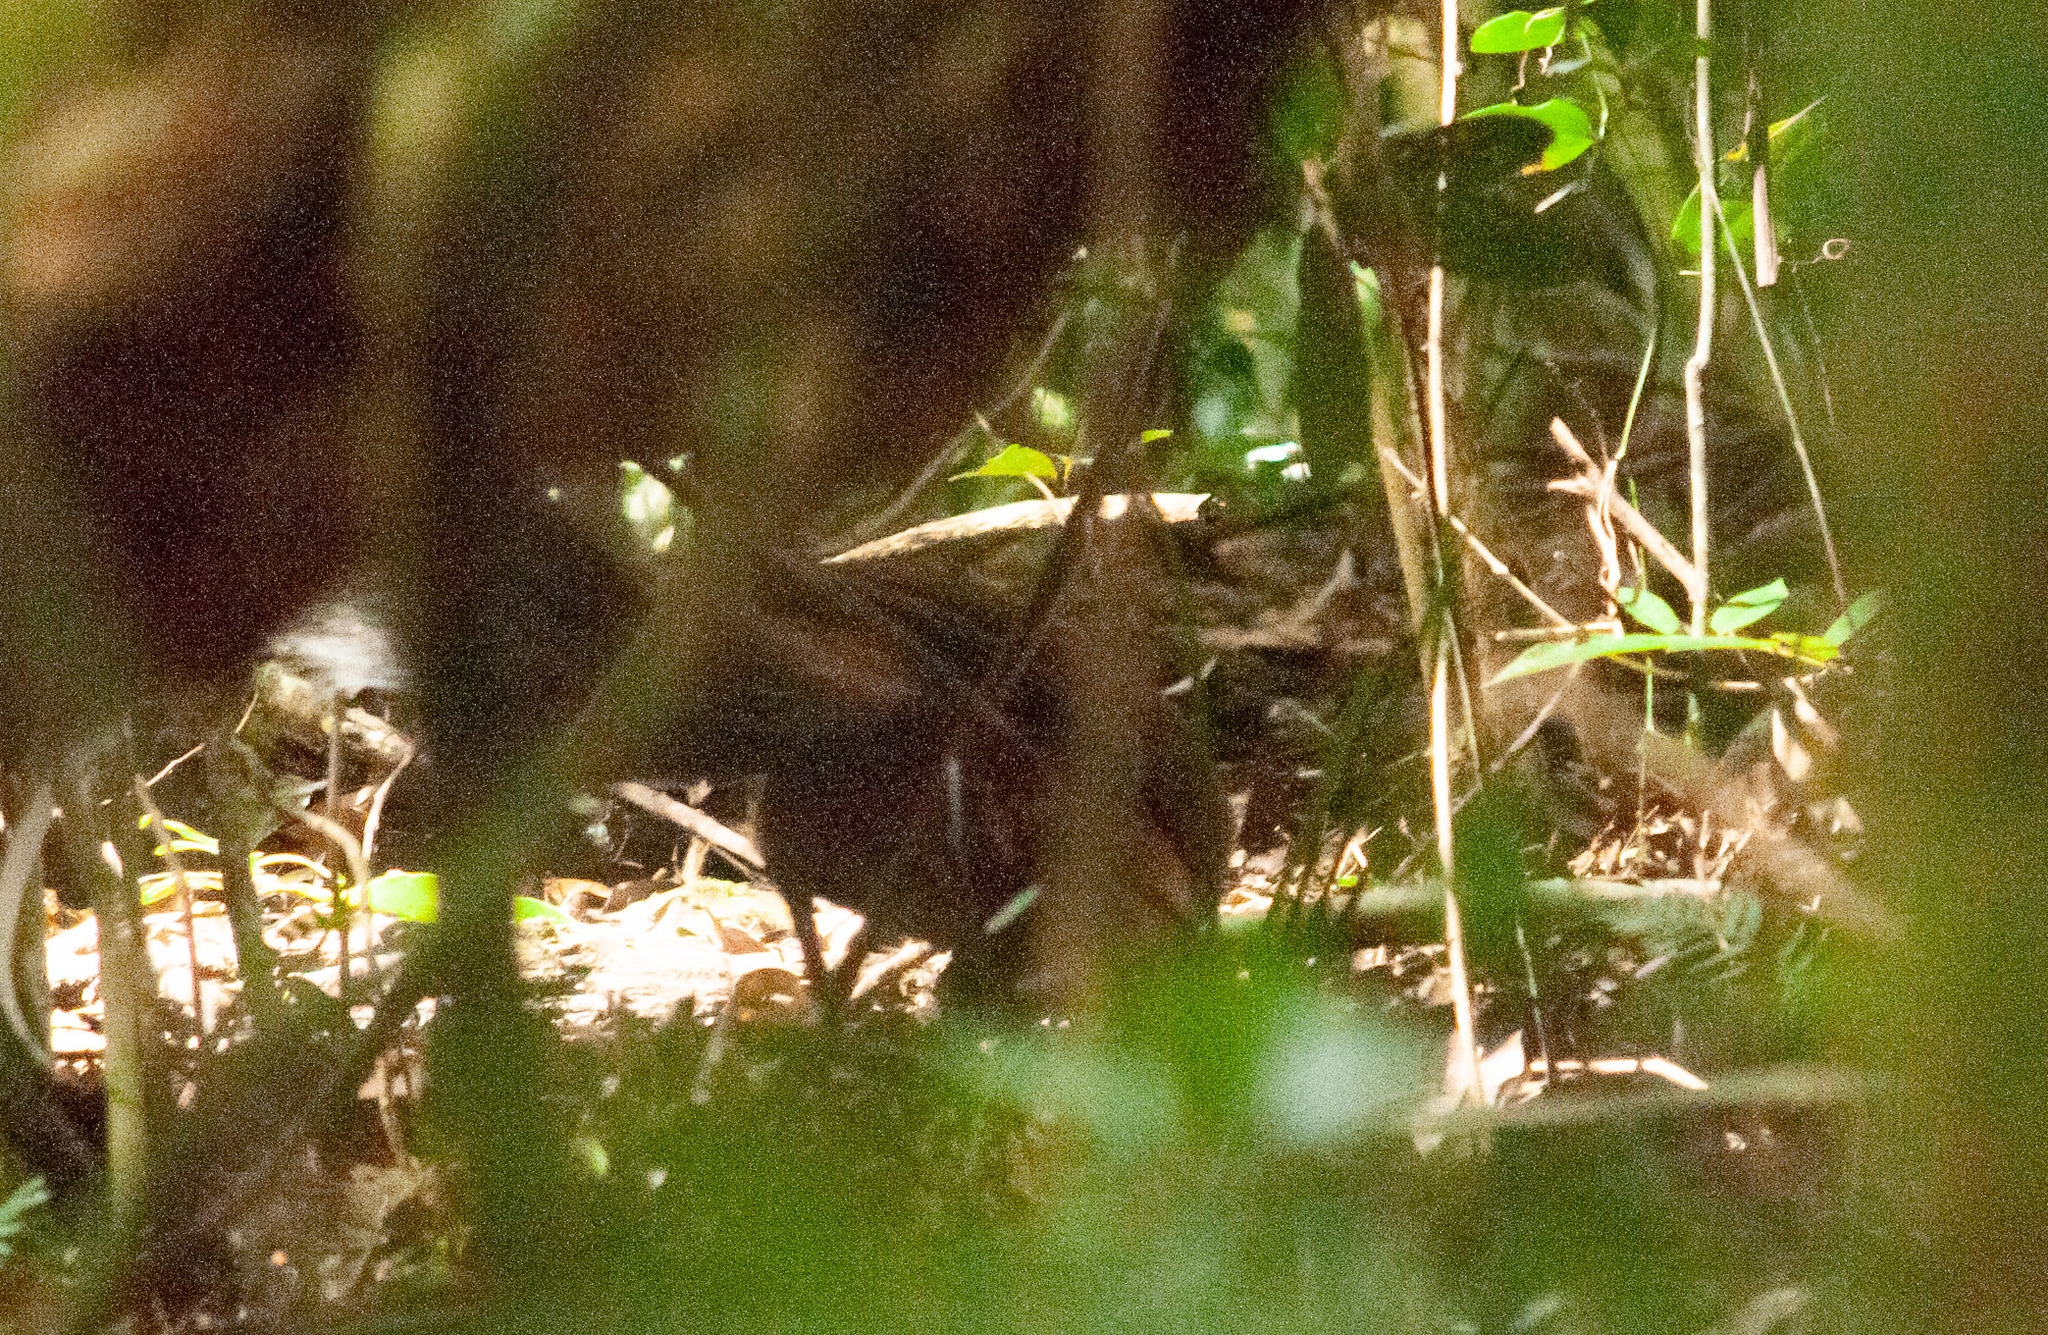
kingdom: Animalia
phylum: Chordata
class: Aves
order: Passeriformes
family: Menuridae
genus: Menura
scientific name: Menura alberti
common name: Albert's lyrebird
